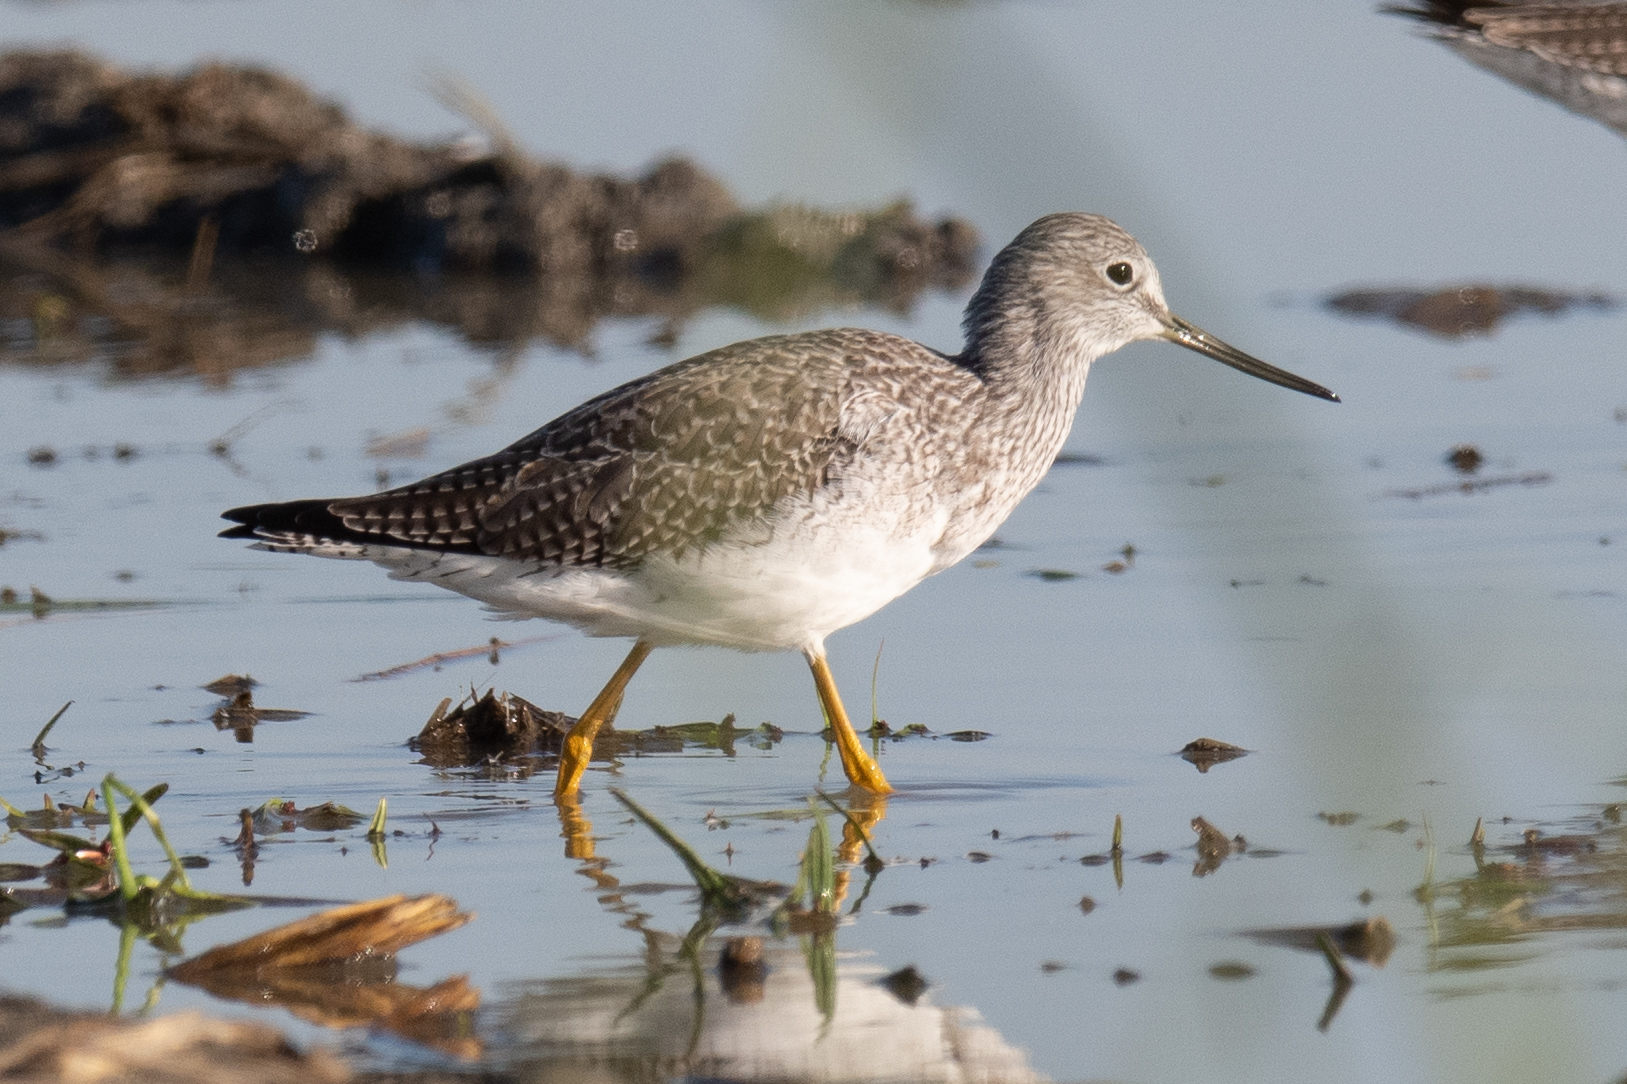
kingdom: Animalia
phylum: Chordata
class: Aves
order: Charadriiformes
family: Scolopacidae
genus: Tringa
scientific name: Tringa melanoleuca
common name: Greater yellowlegs
